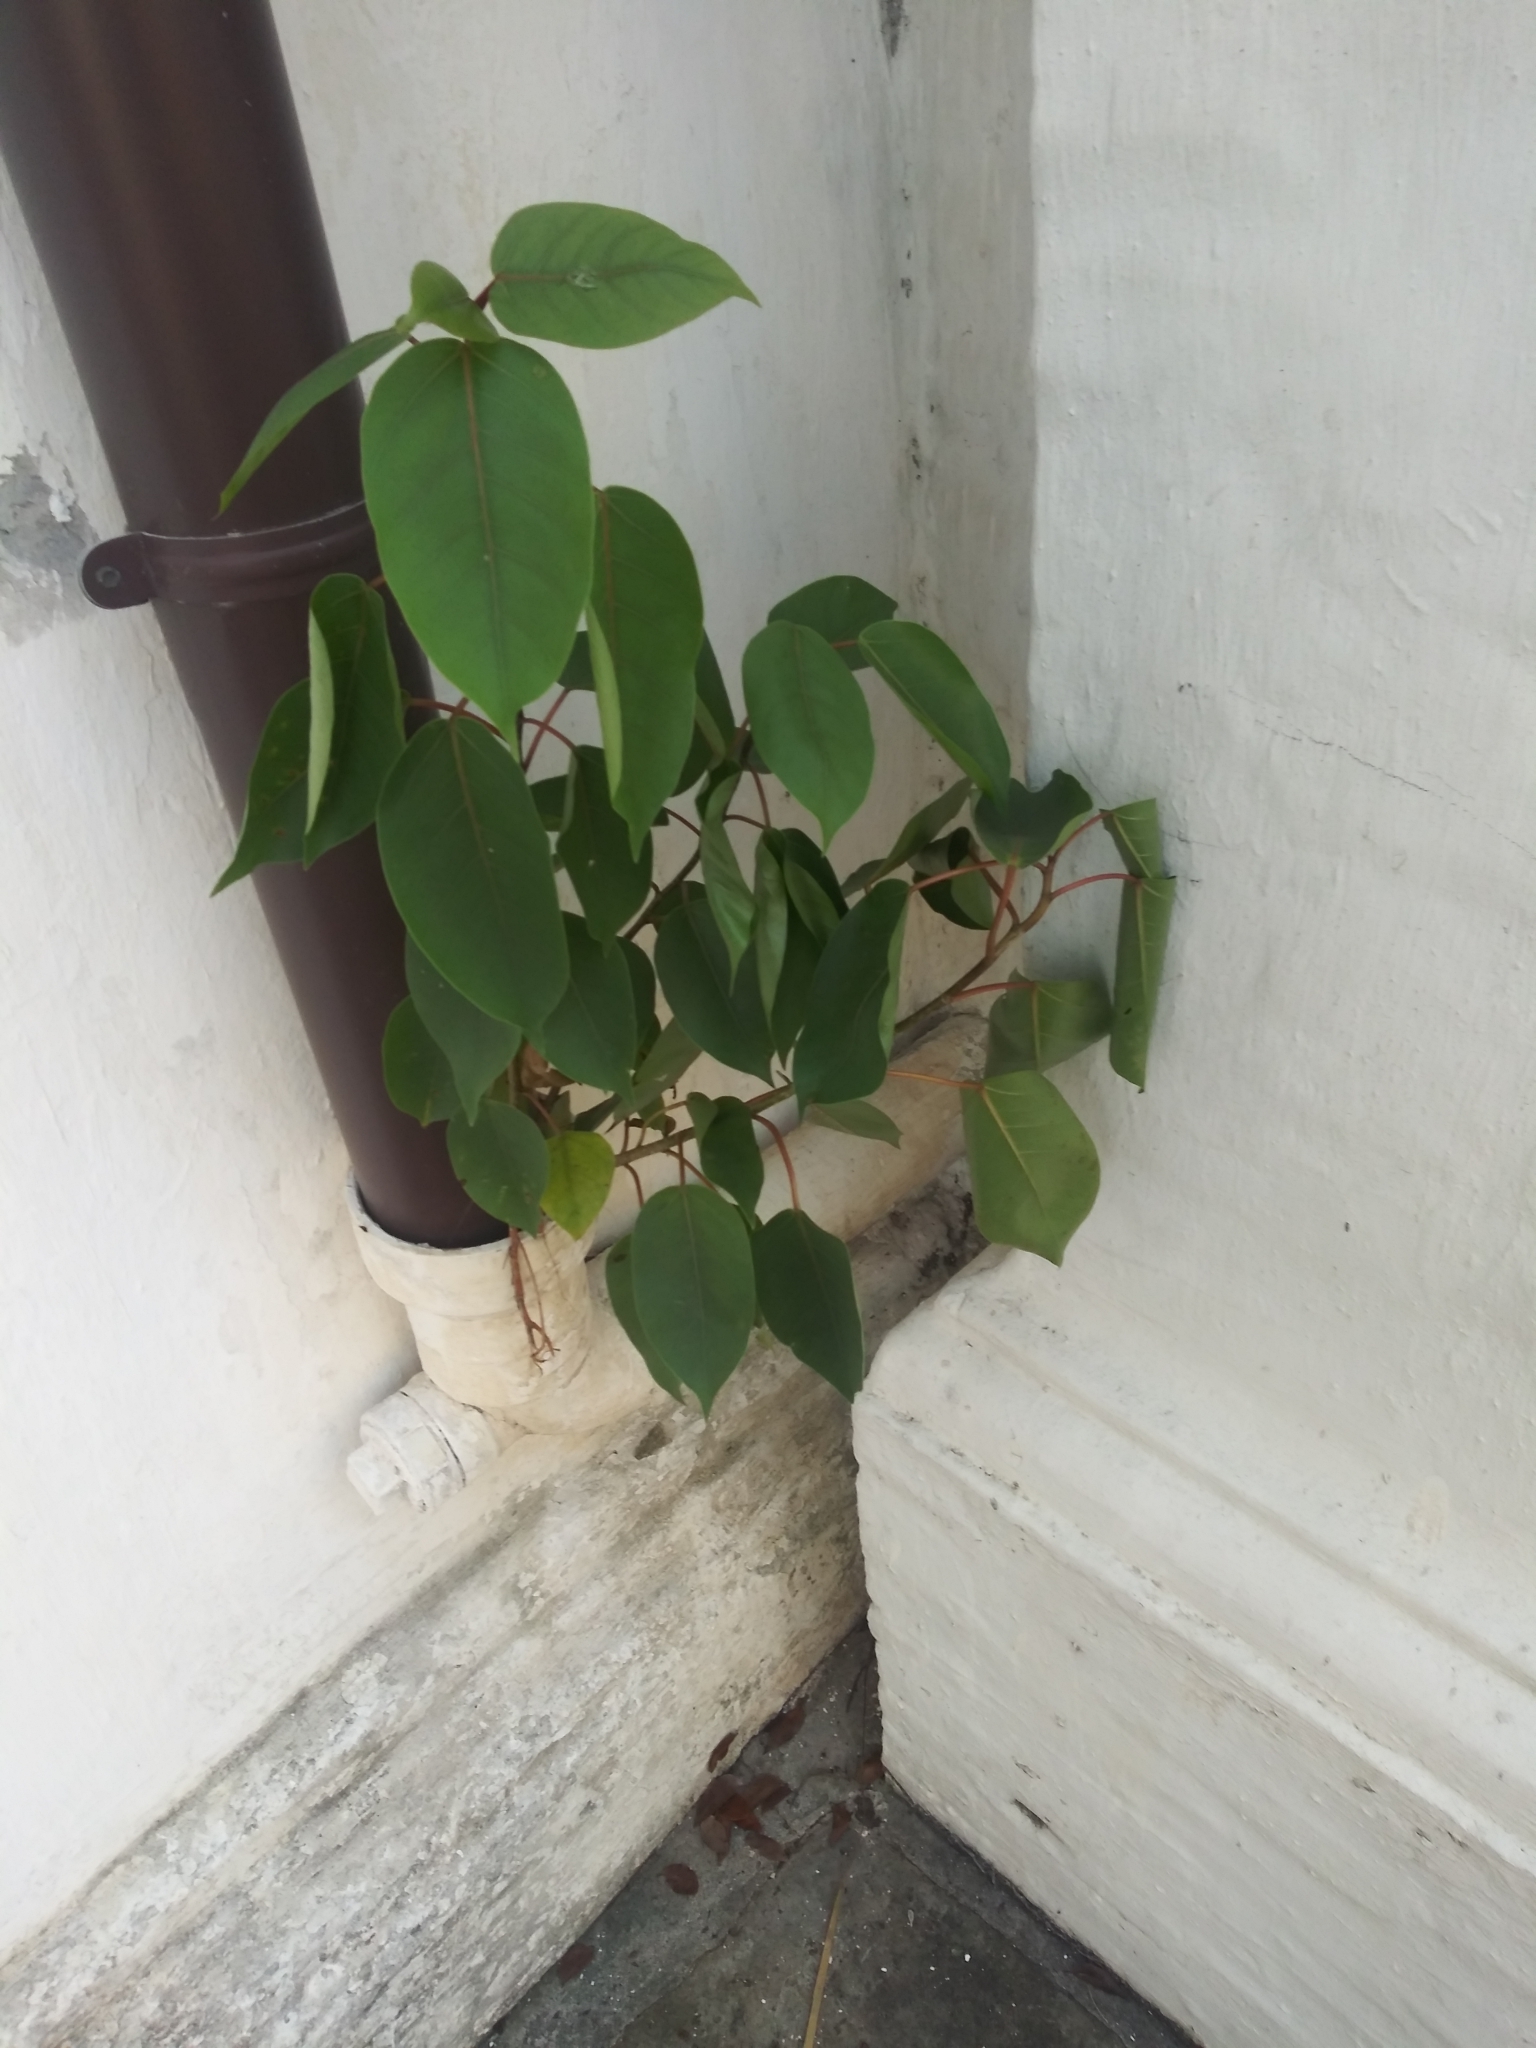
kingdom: Plantae
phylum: Tracheophyta
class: Magnoliopsida
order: Rosales
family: Moraceae
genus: Ficus
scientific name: Ficus citrifolia
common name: Strangler fig
